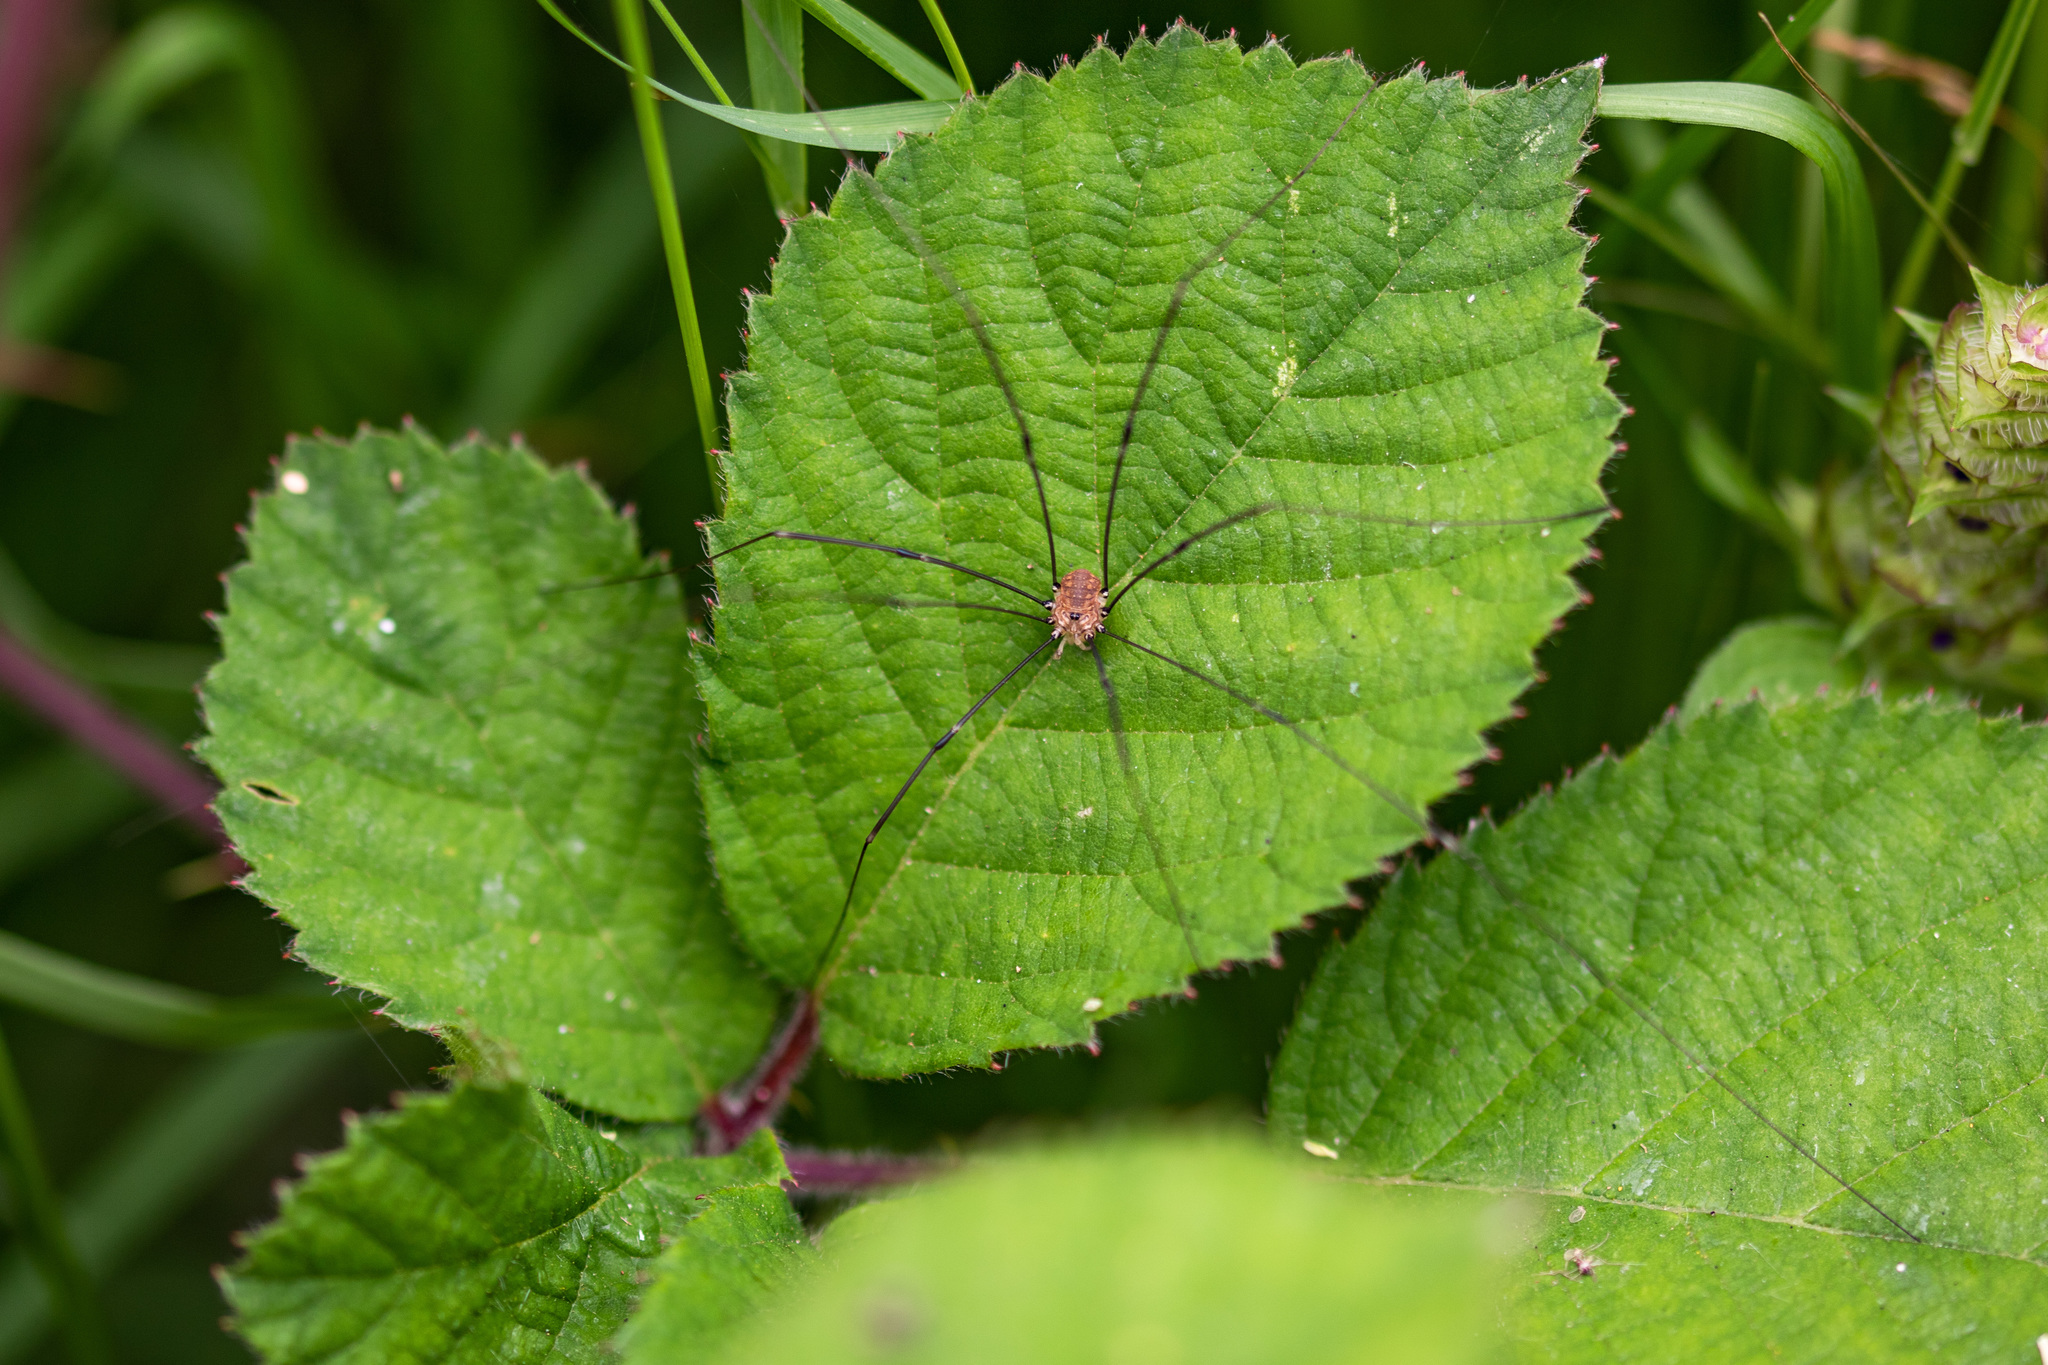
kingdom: Animalia
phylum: Arthropoda
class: Arachnida
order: Opiliones
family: Sclerosomatidae
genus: Leiobunum
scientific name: Leiobunum rotundum
